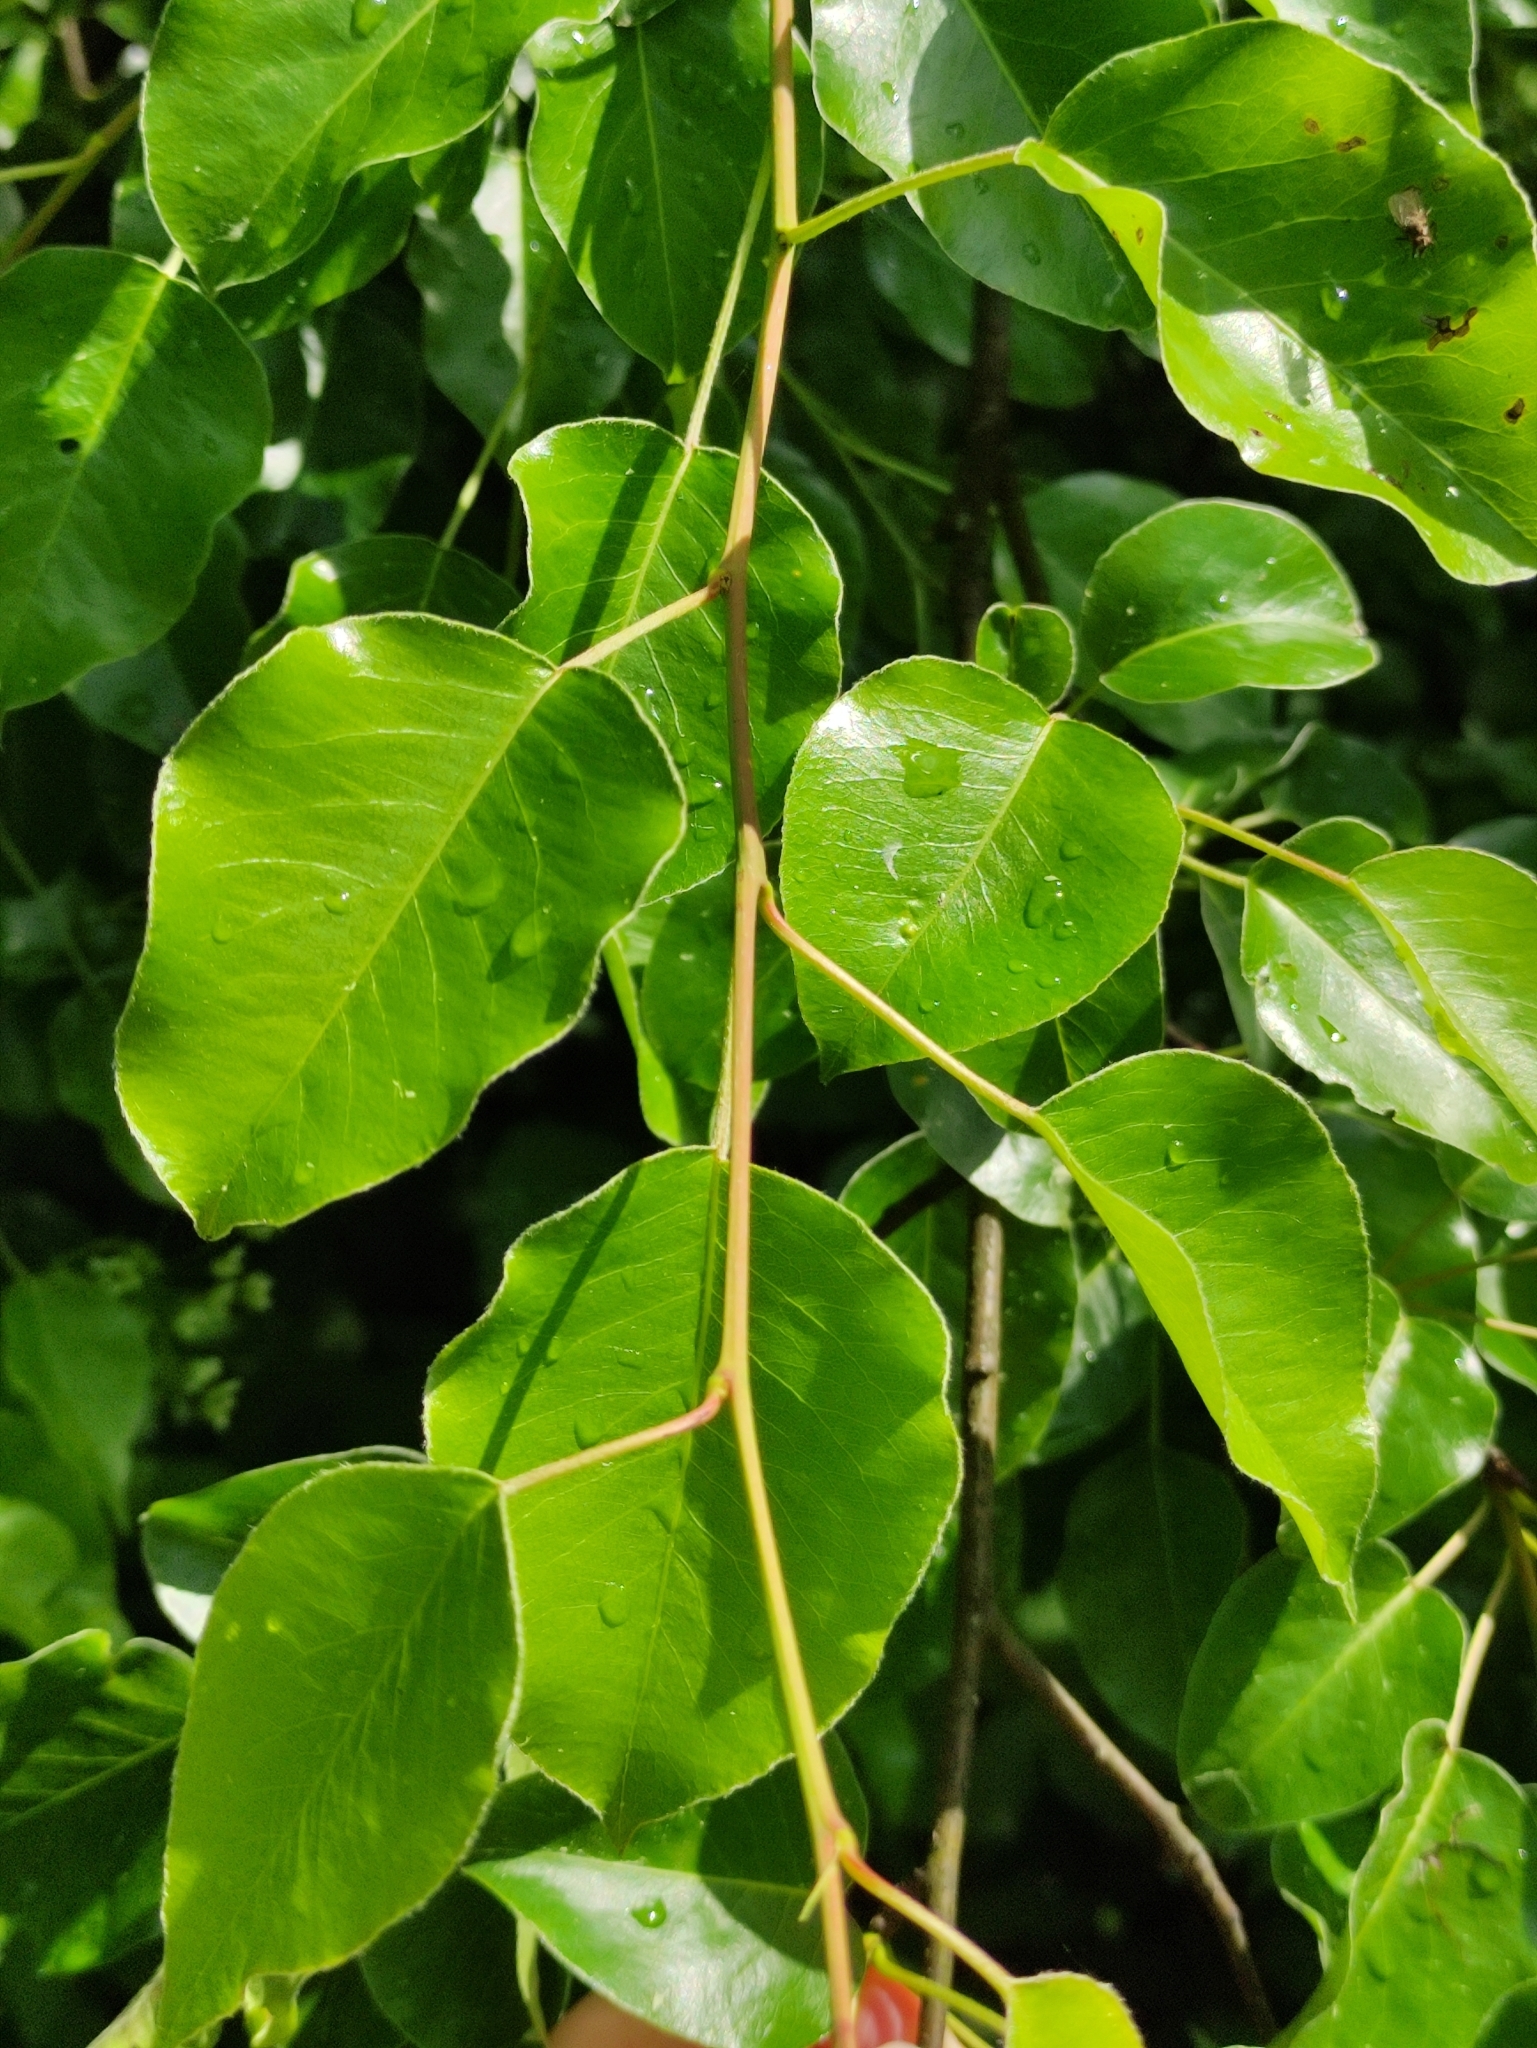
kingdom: Plantae
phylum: Tracheophyta
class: Magnoliopsida
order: Rosales
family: Rosaceae
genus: Pyrus
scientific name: Pyrus communis
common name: Pear
